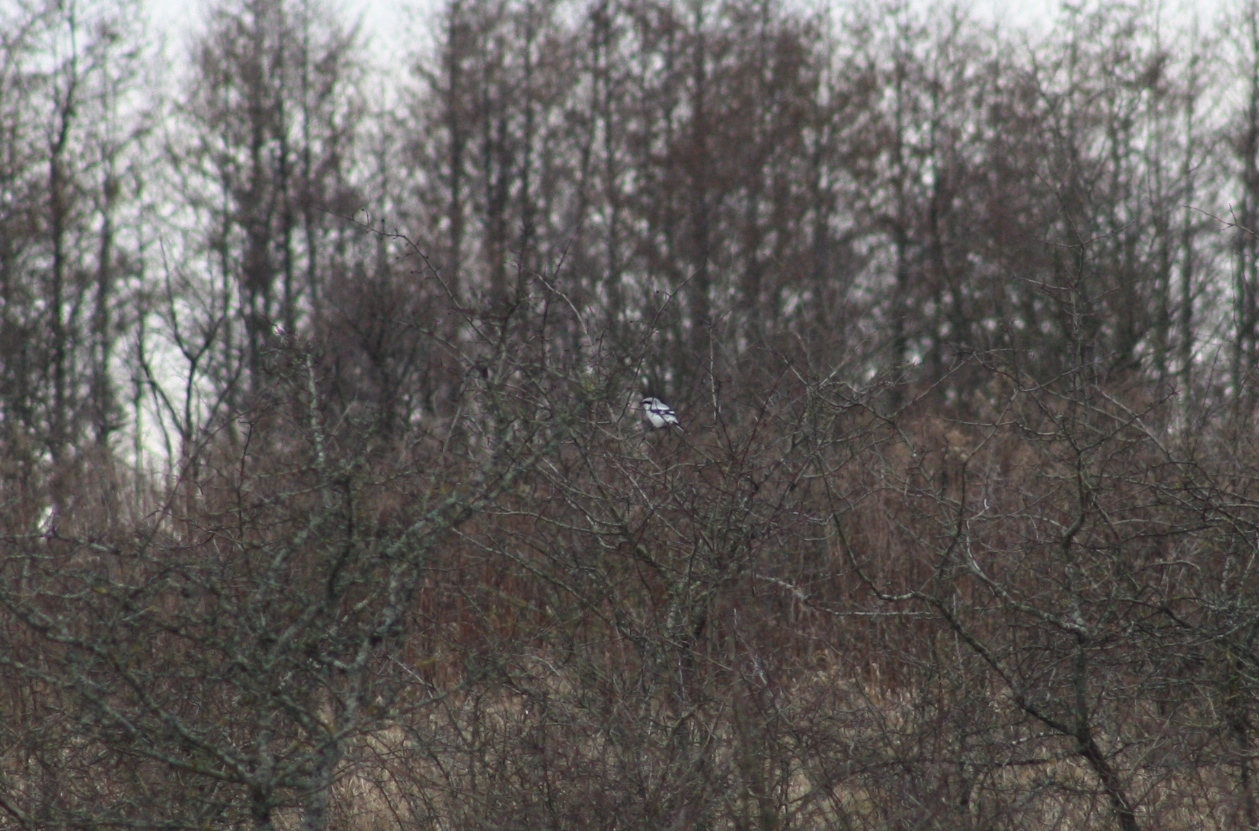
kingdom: Animalia
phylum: Chordata
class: Aves
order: Passeriformes
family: Laniidae
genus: Lanius
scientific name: Lanius excubitor
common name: Great grey shrike
